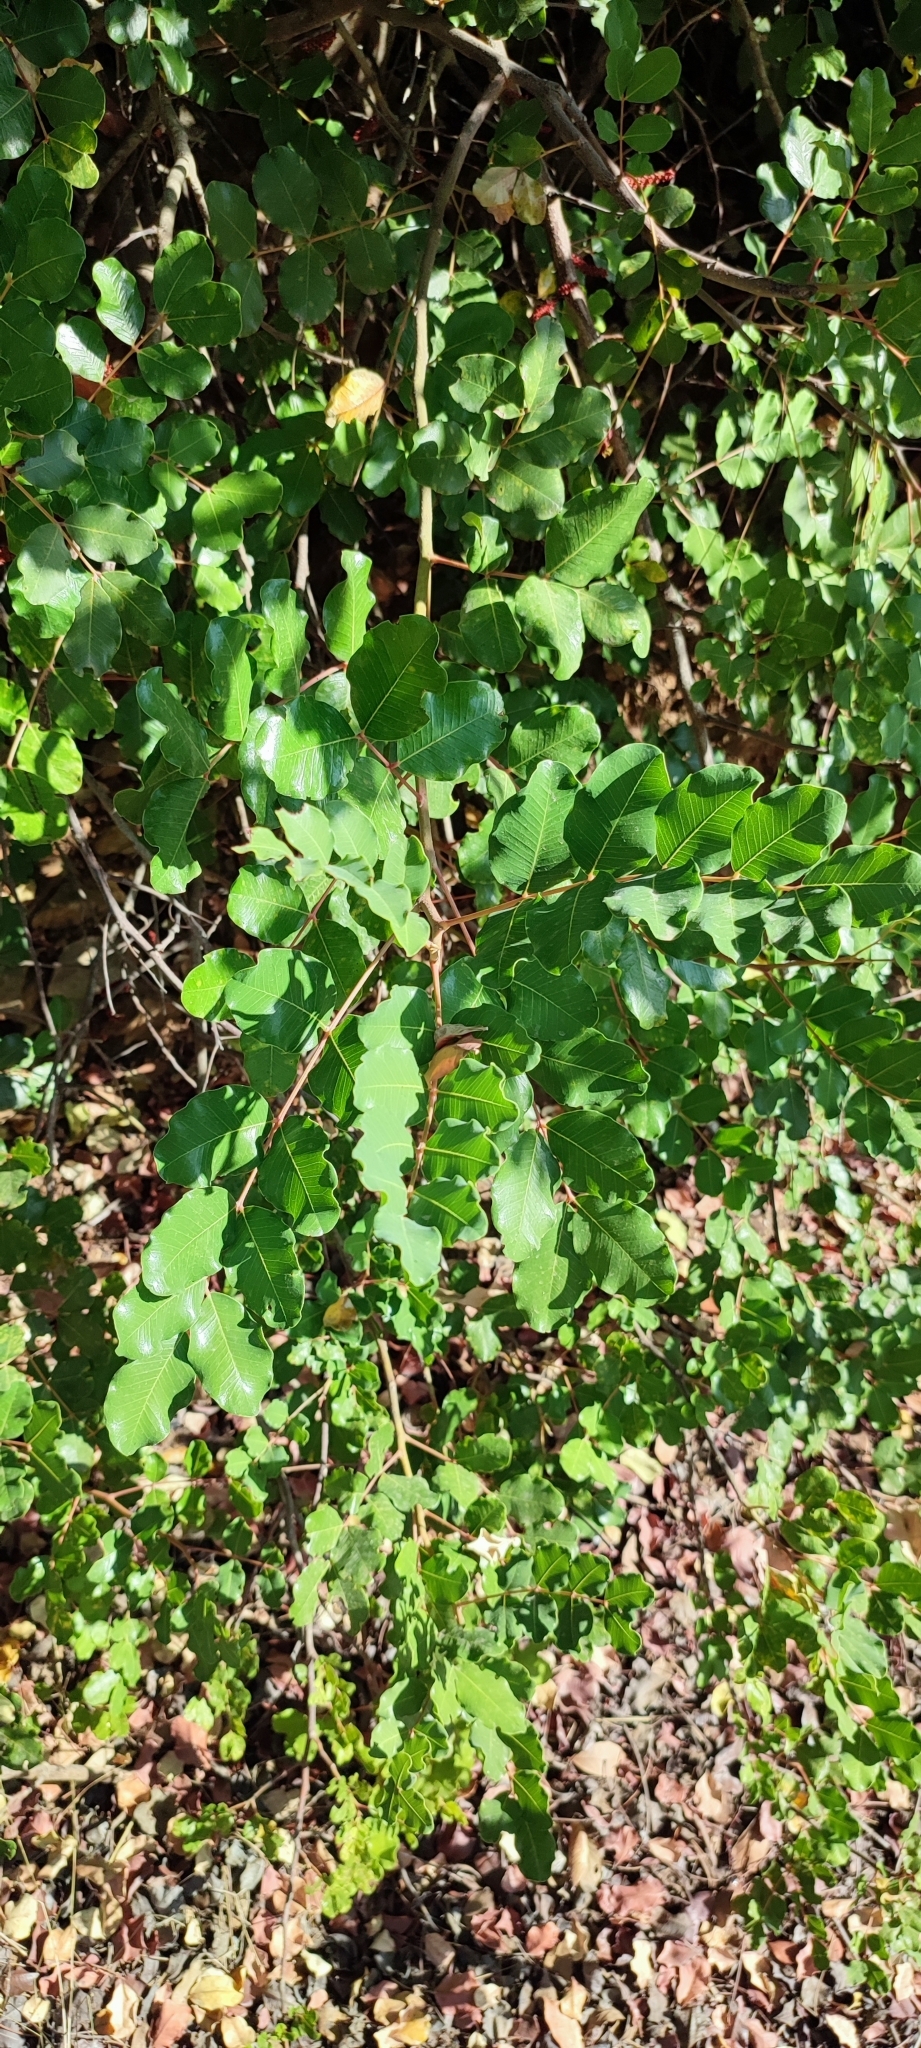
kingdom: Plantae
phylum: Tracheophyta
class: Magnoliopsida
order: Fabales
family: Fabaceae
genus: Ceratonia
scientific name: Ceratonia siliqua
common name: Carob
